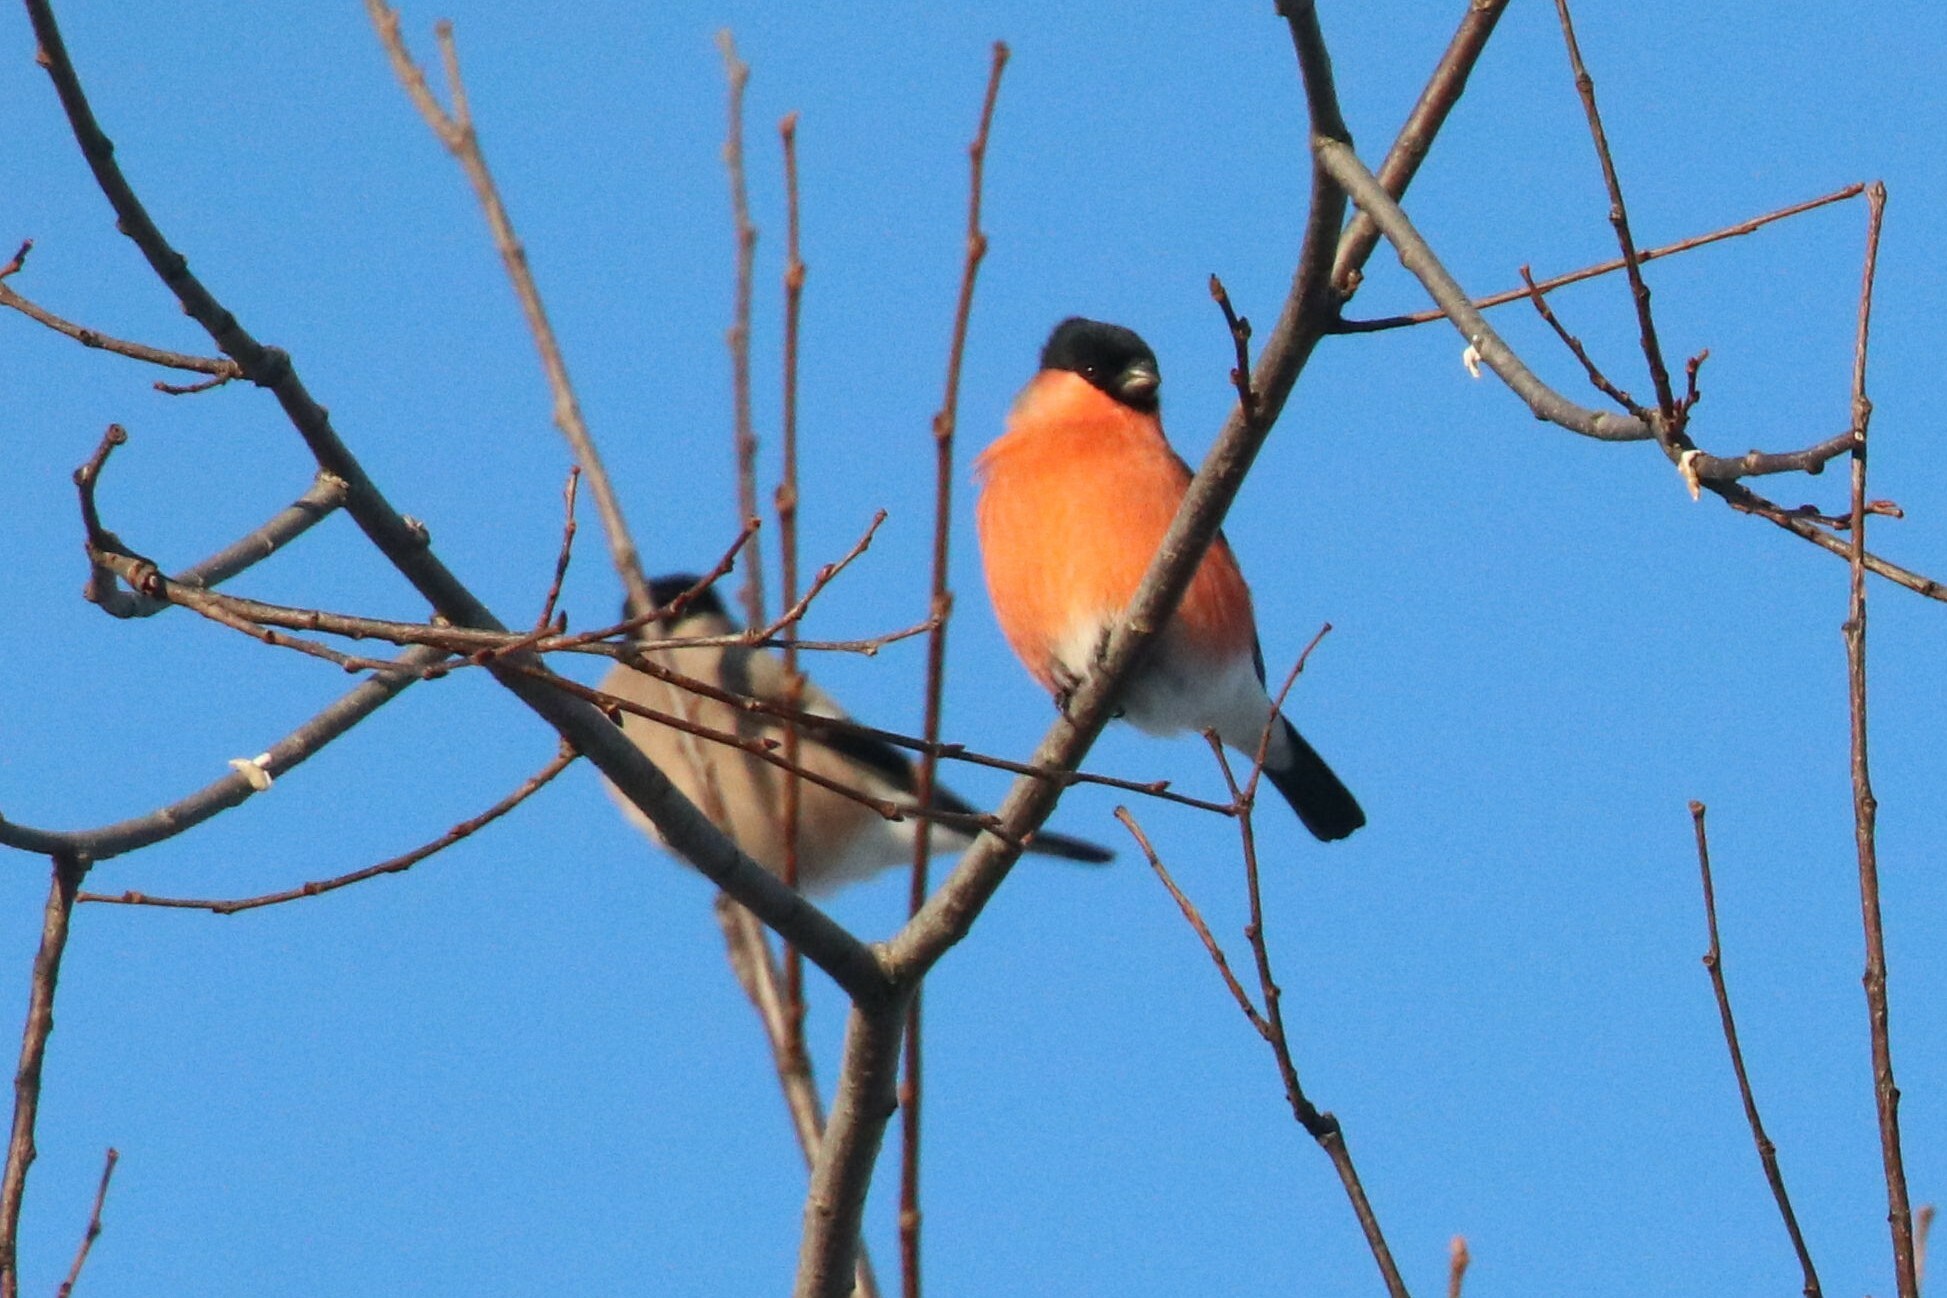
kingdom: Animalia
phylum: Chordata
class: Aves
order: Passeriformes
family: Fringillidae
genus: Pyrrhula
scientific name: Pyrrhula pyrrhula
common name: Eurasian bullfinch
